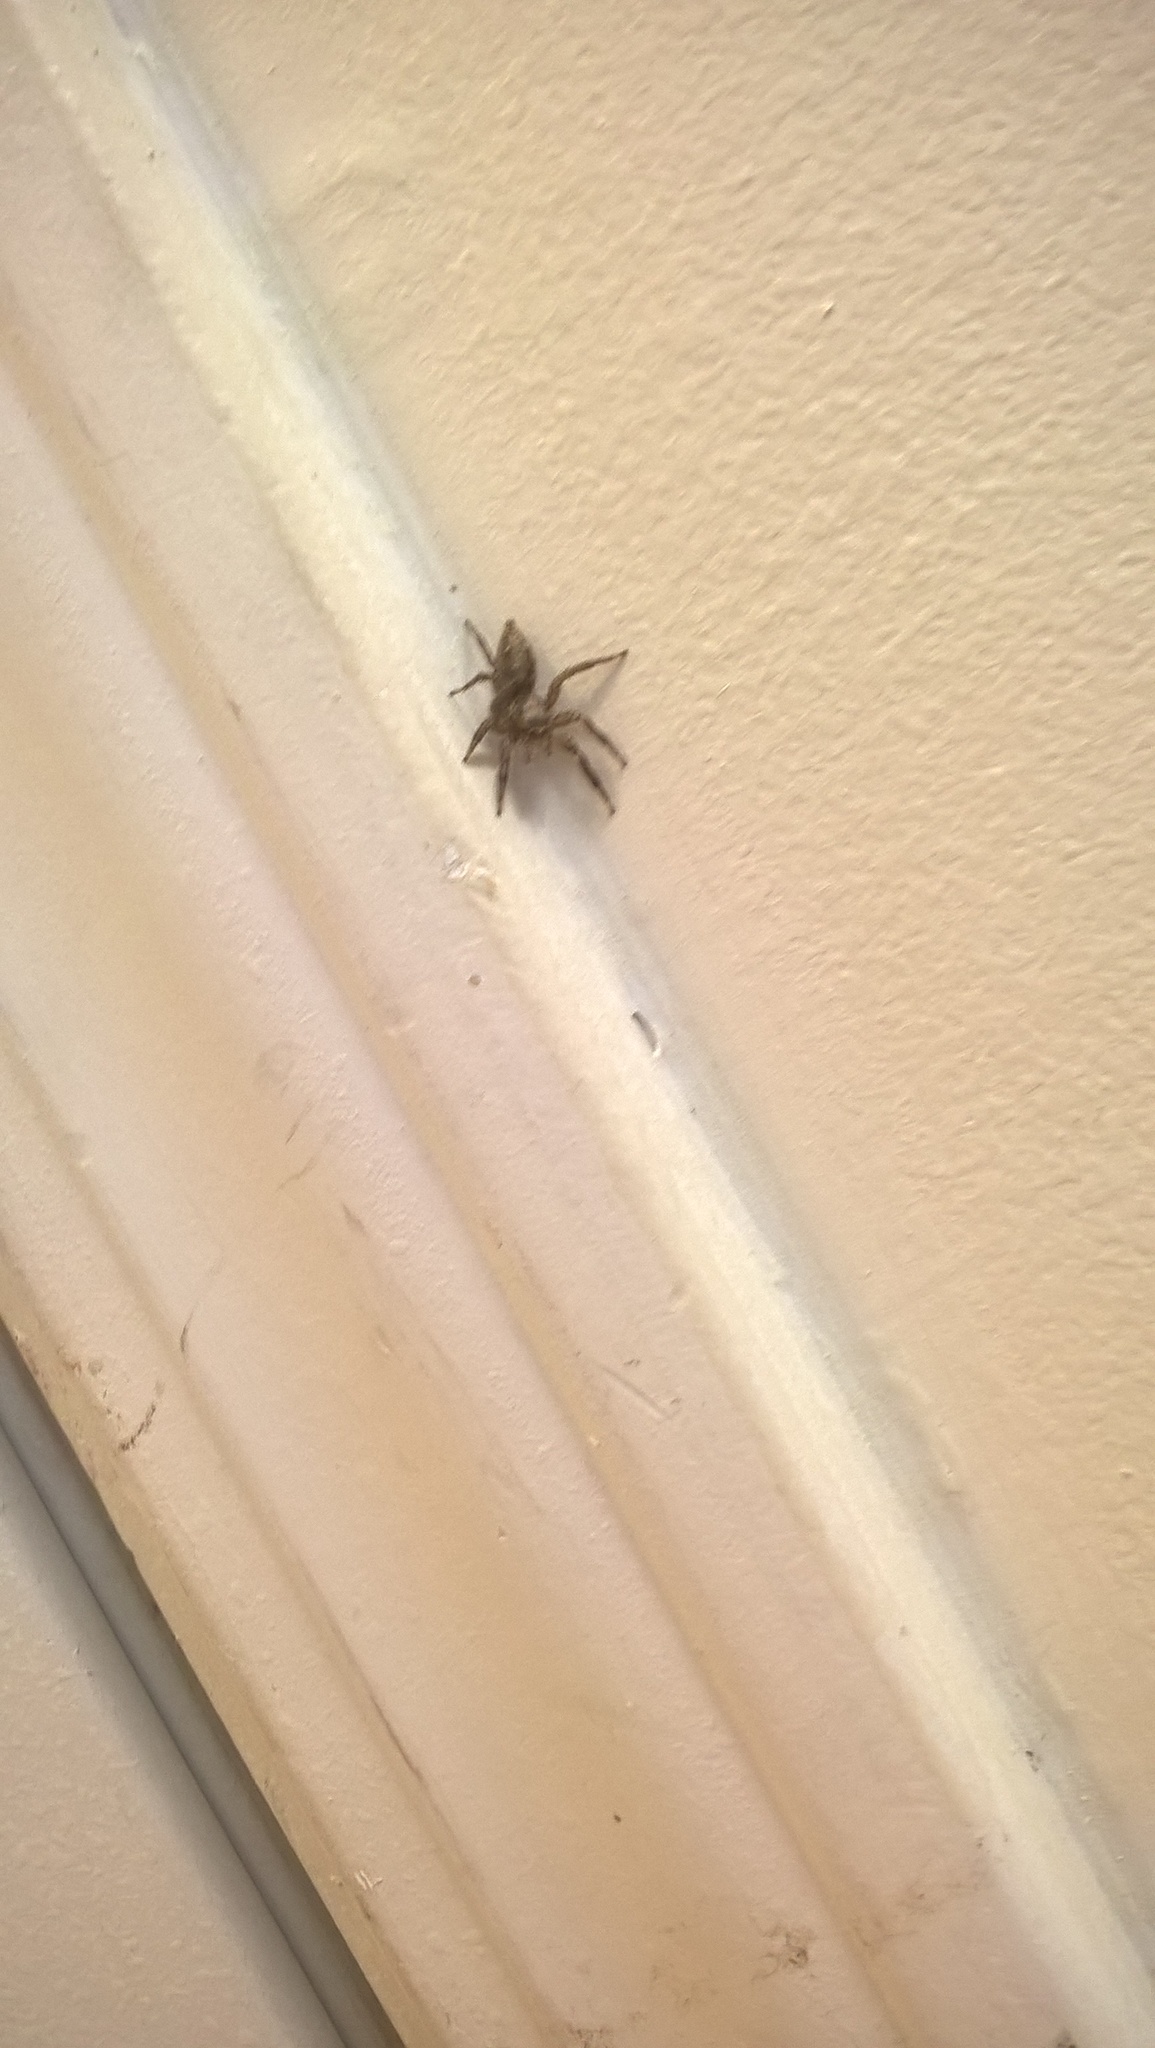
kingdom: Animalia
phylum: Arthropoda
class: Arachnida
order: Araneae
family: Salticidae
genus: Plexippus
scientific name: Plexippus paykulli
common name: Pantropical jumper
